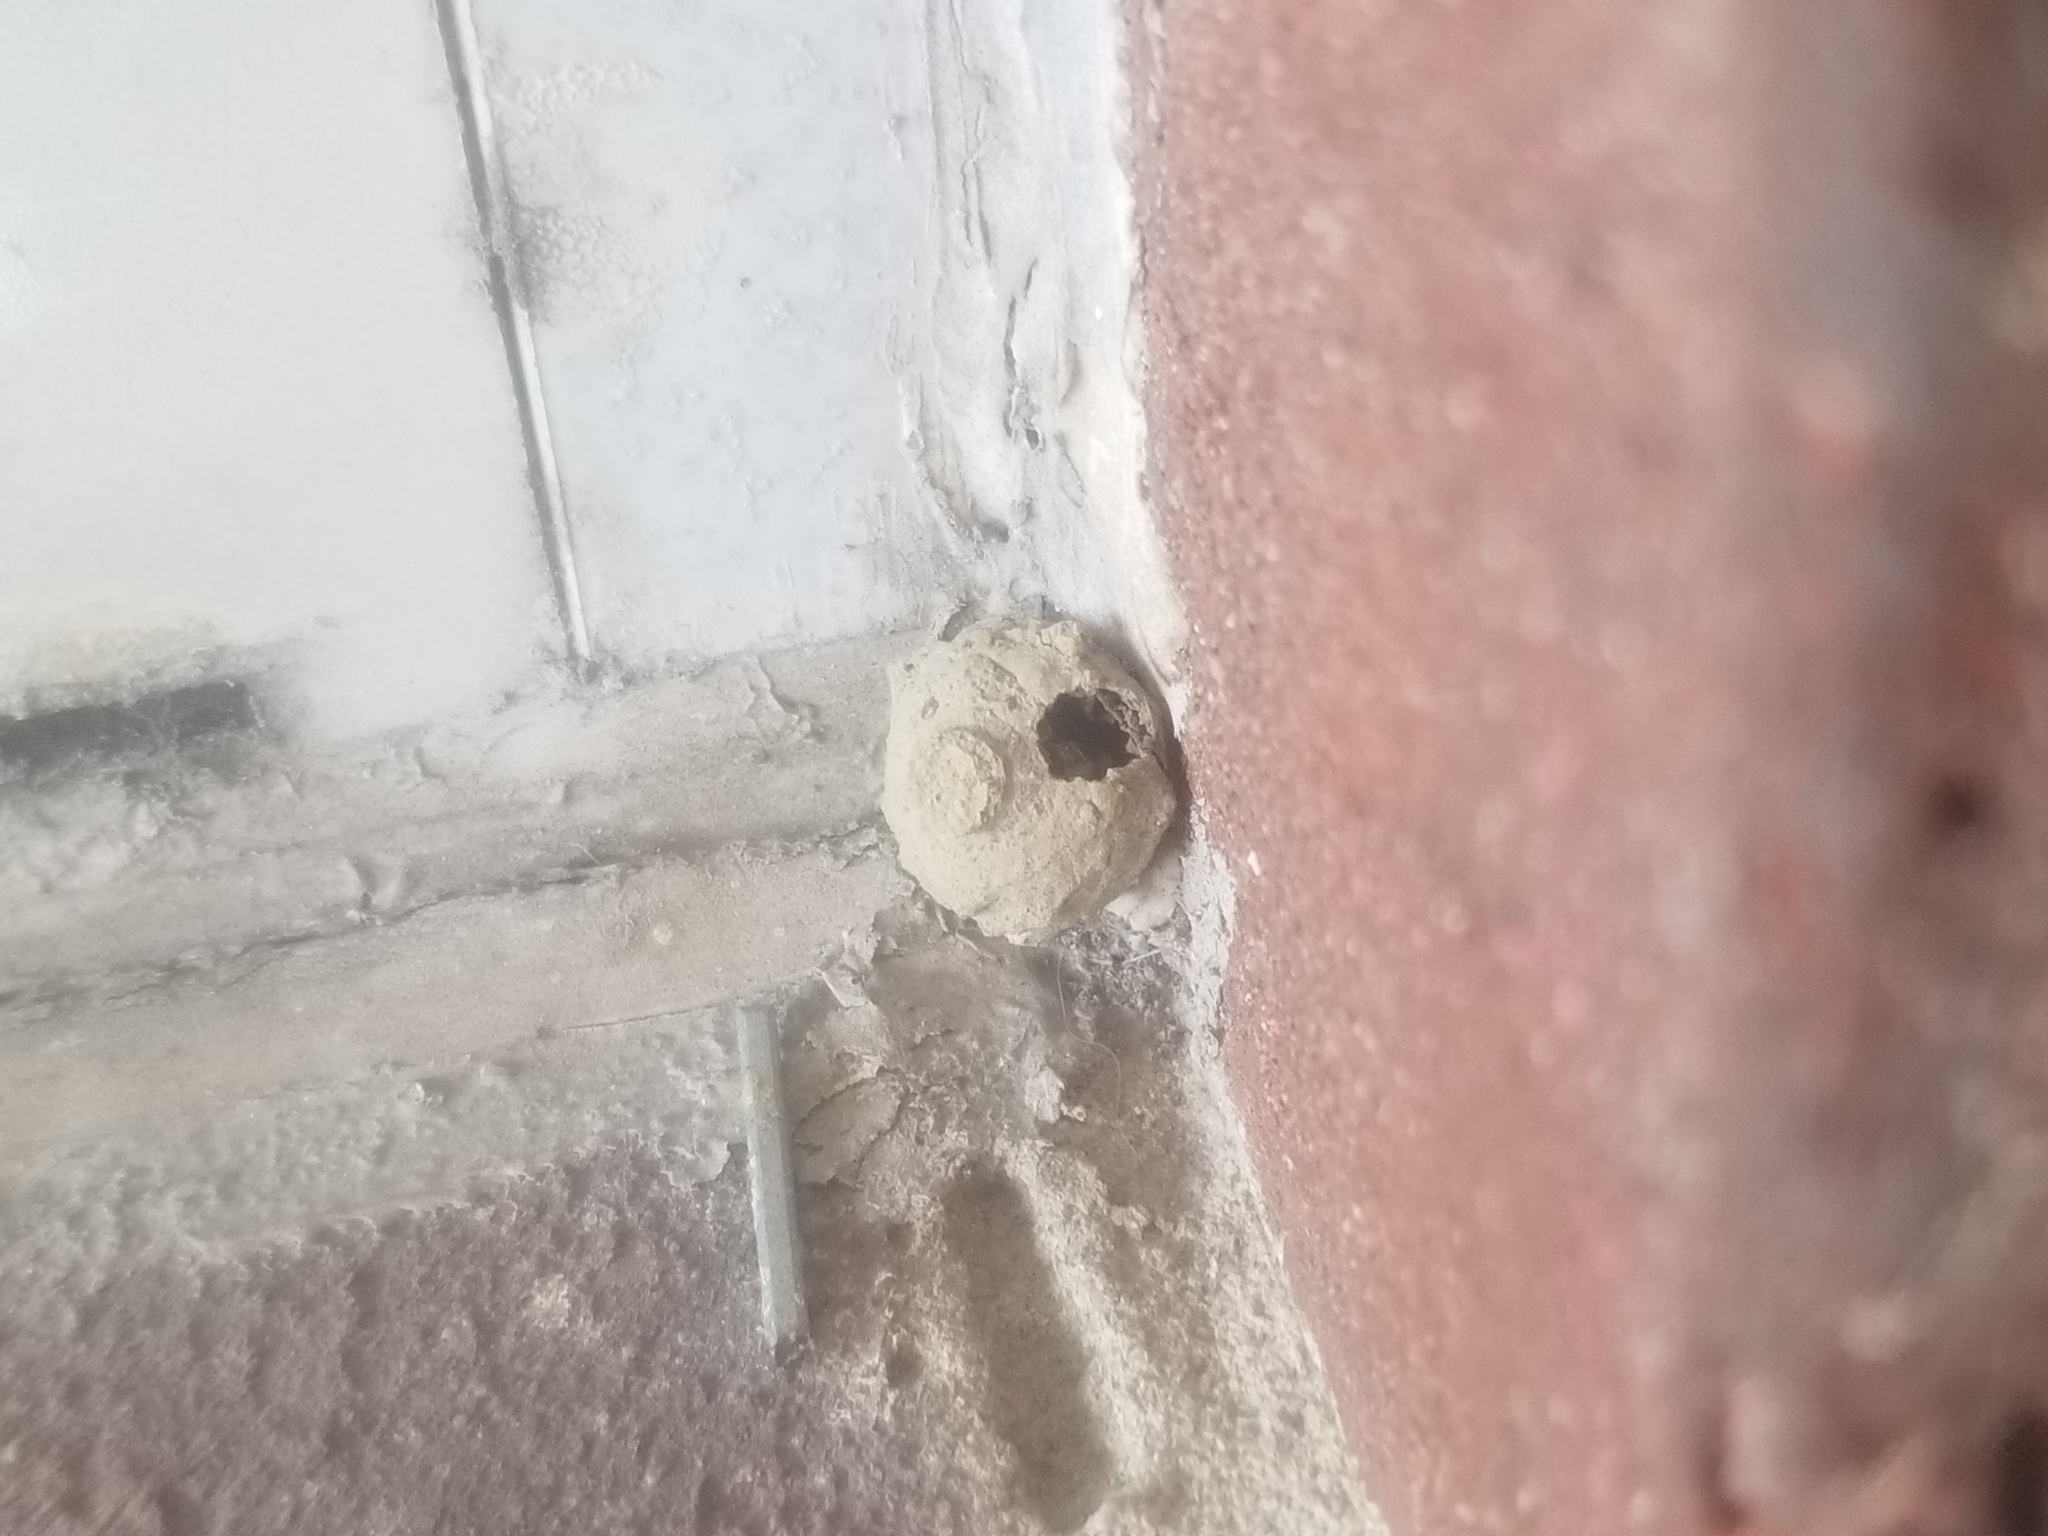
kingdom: Animalia
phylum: Arthropoda
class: Insecta
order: Hymenoptera
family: Vespidae
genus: Eumenes
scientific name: Eumenes
